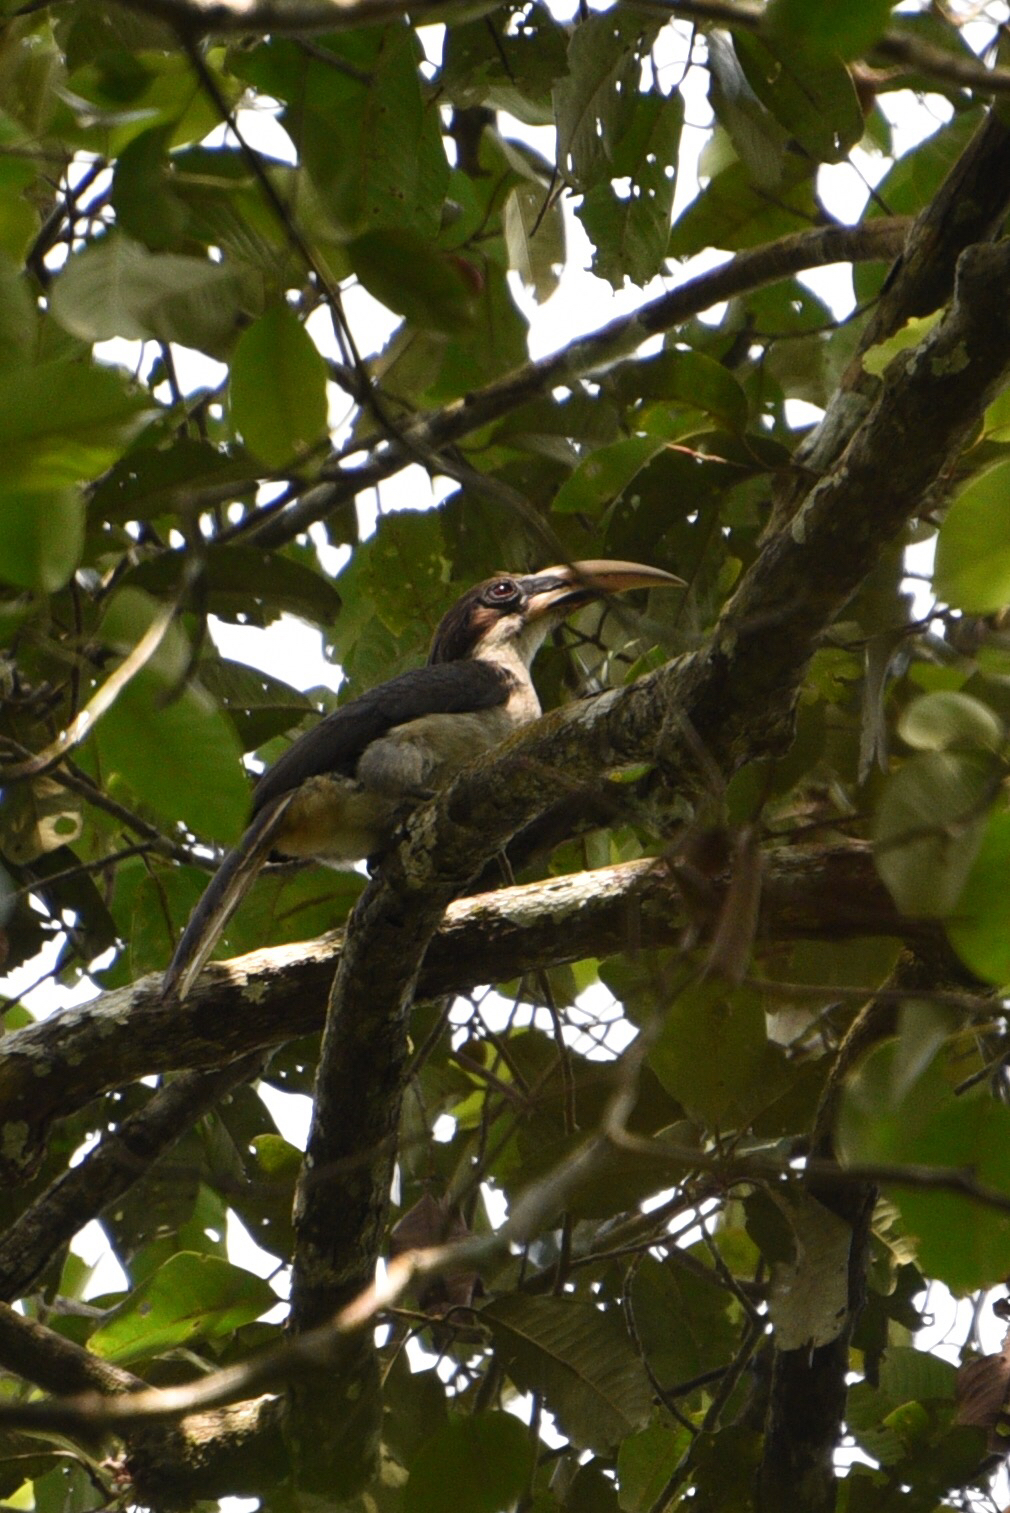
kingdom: Animalia
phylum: Chordata
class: Aves
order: Bucerotiformes
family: Bucerotidae
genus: Ocyceros
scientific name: Ocyceros gingalensis
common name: Sri lanka grey hornbill
